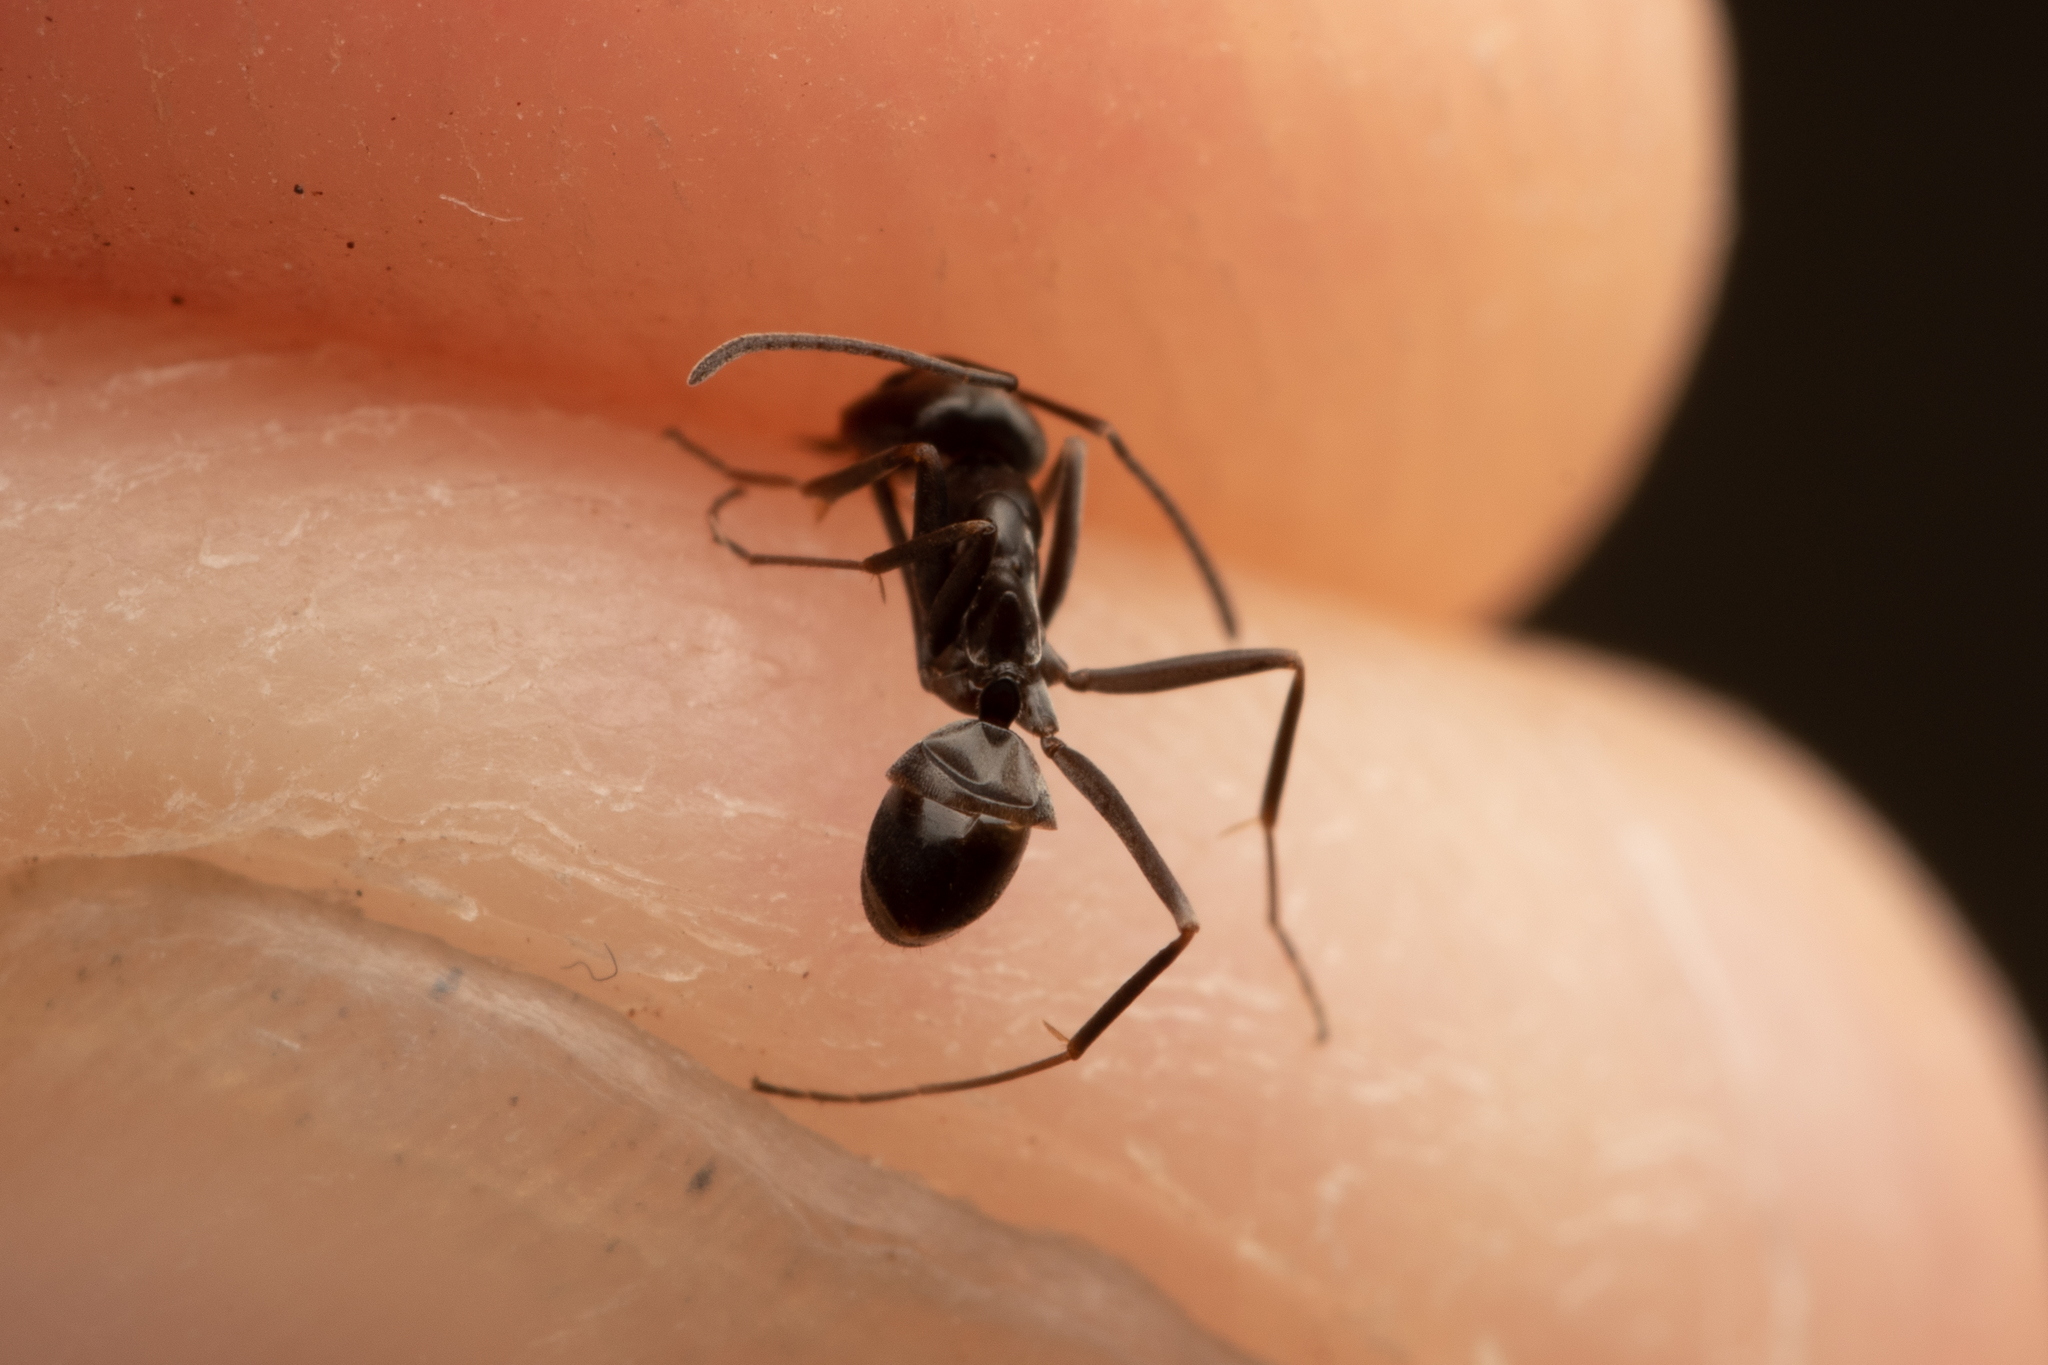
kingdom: Animalia
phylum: Arthropoda
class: Insecta
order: Hymenoptera
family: Formicidae
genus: Dorymyrmex
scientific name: Dorymyrmex
